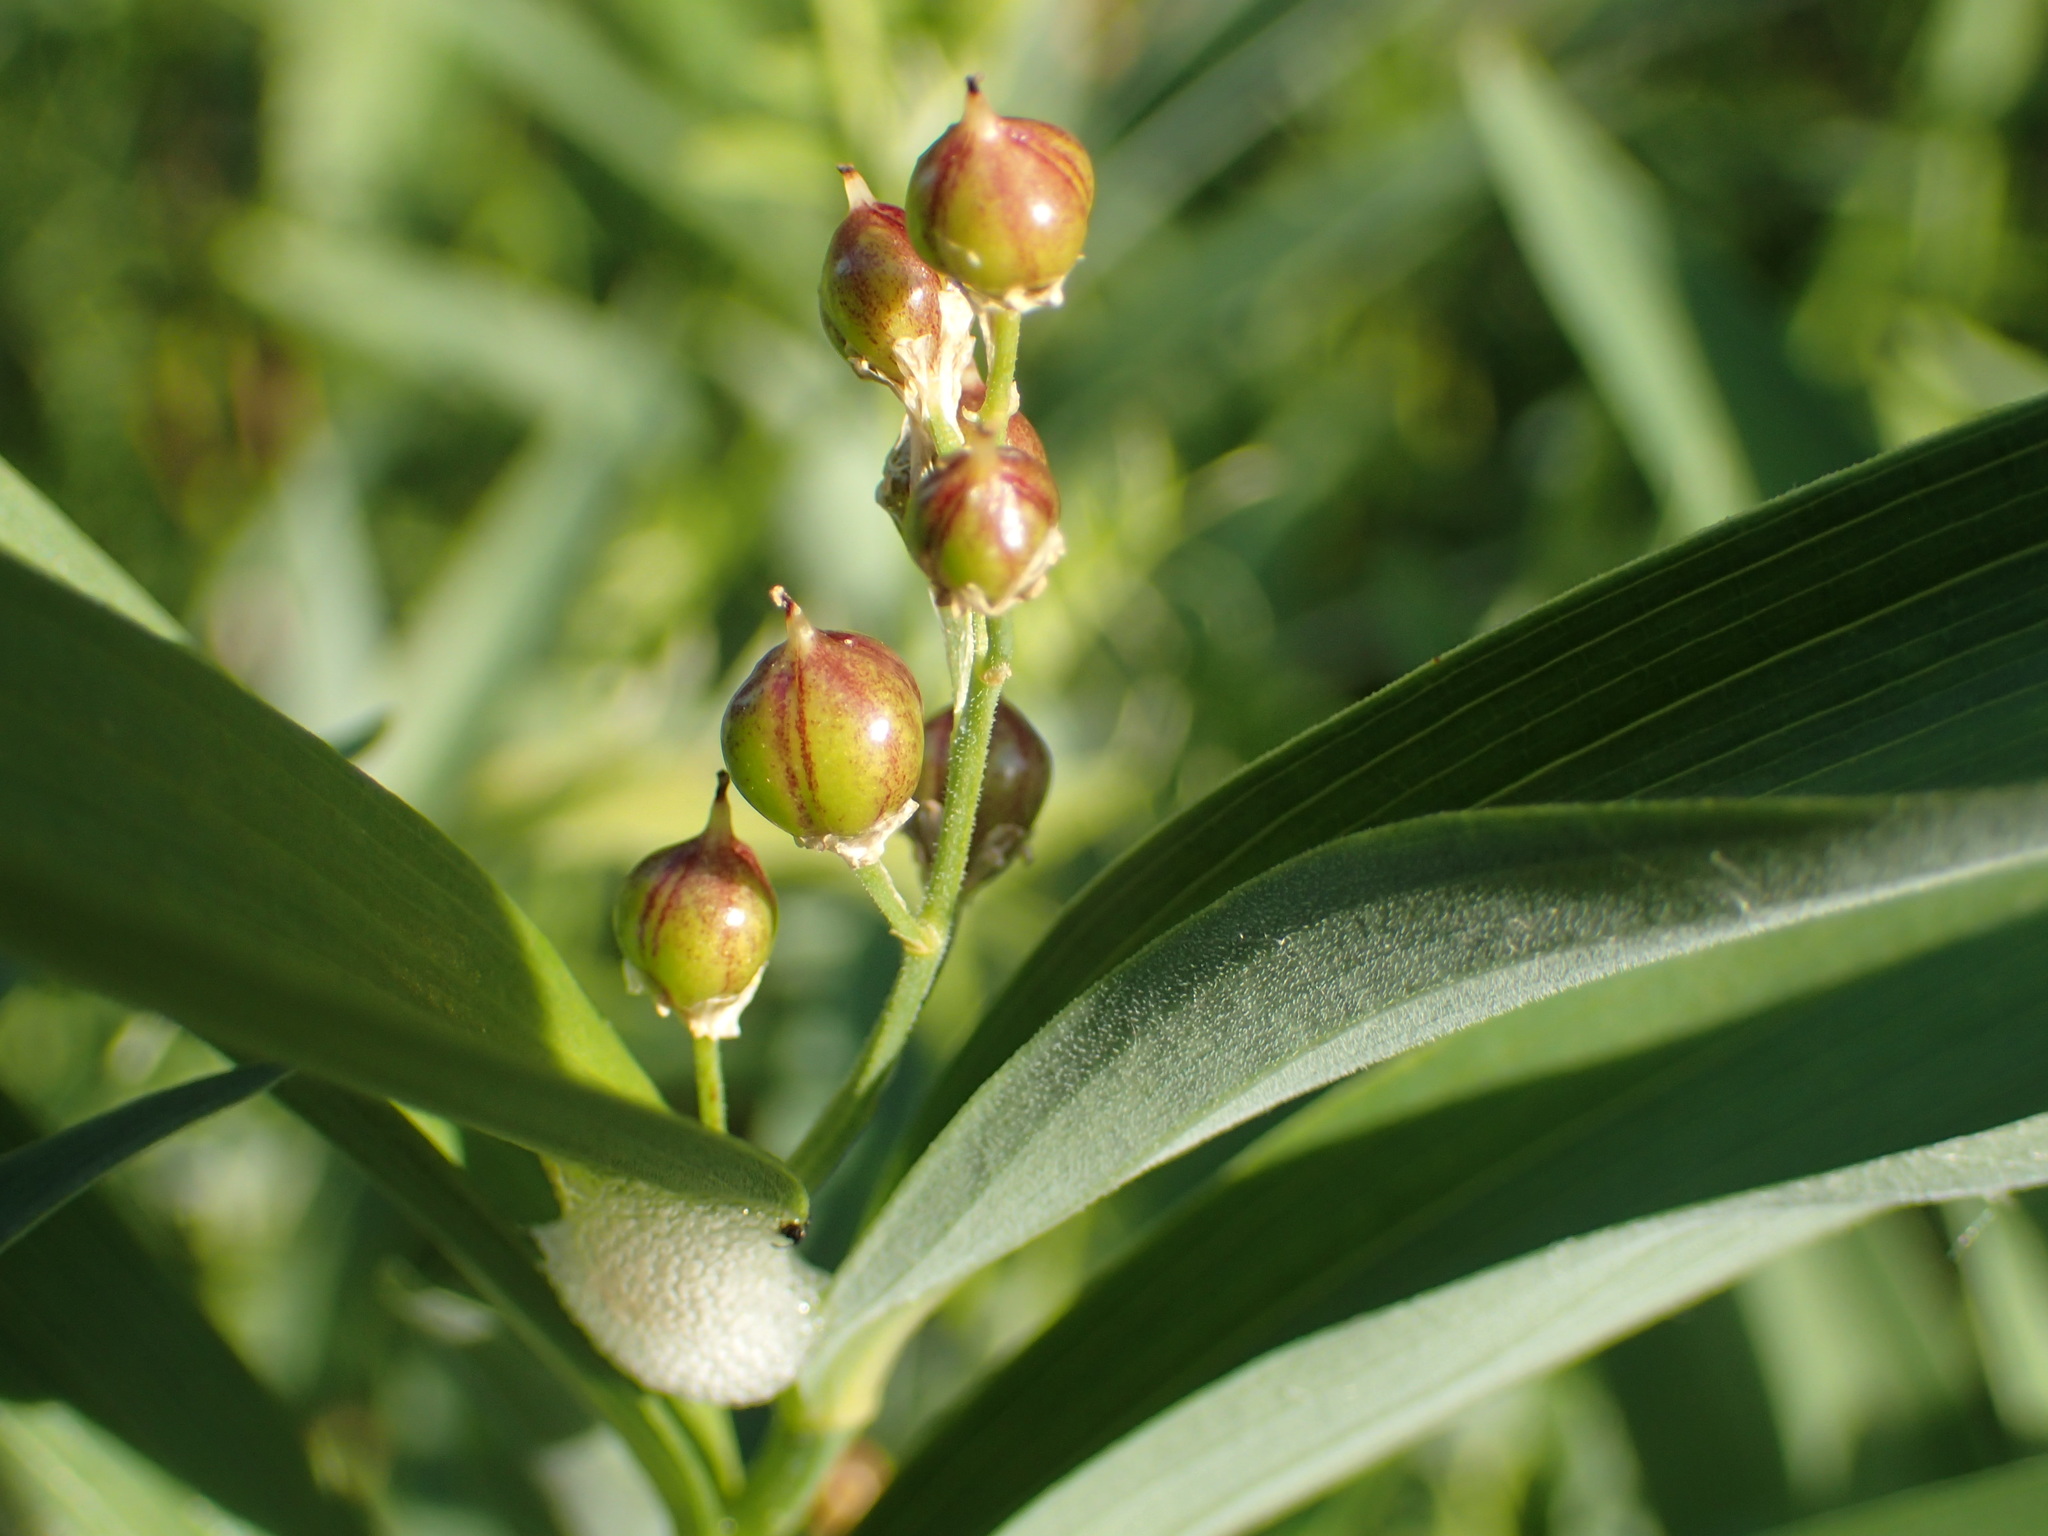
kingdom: Plantae
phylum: Tracheophyta
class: Liliopsida
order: Asparagales
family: Asparagaceae
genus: Maianthemum
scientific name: Maianthemum stellatum
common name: Little false solomon's seal
